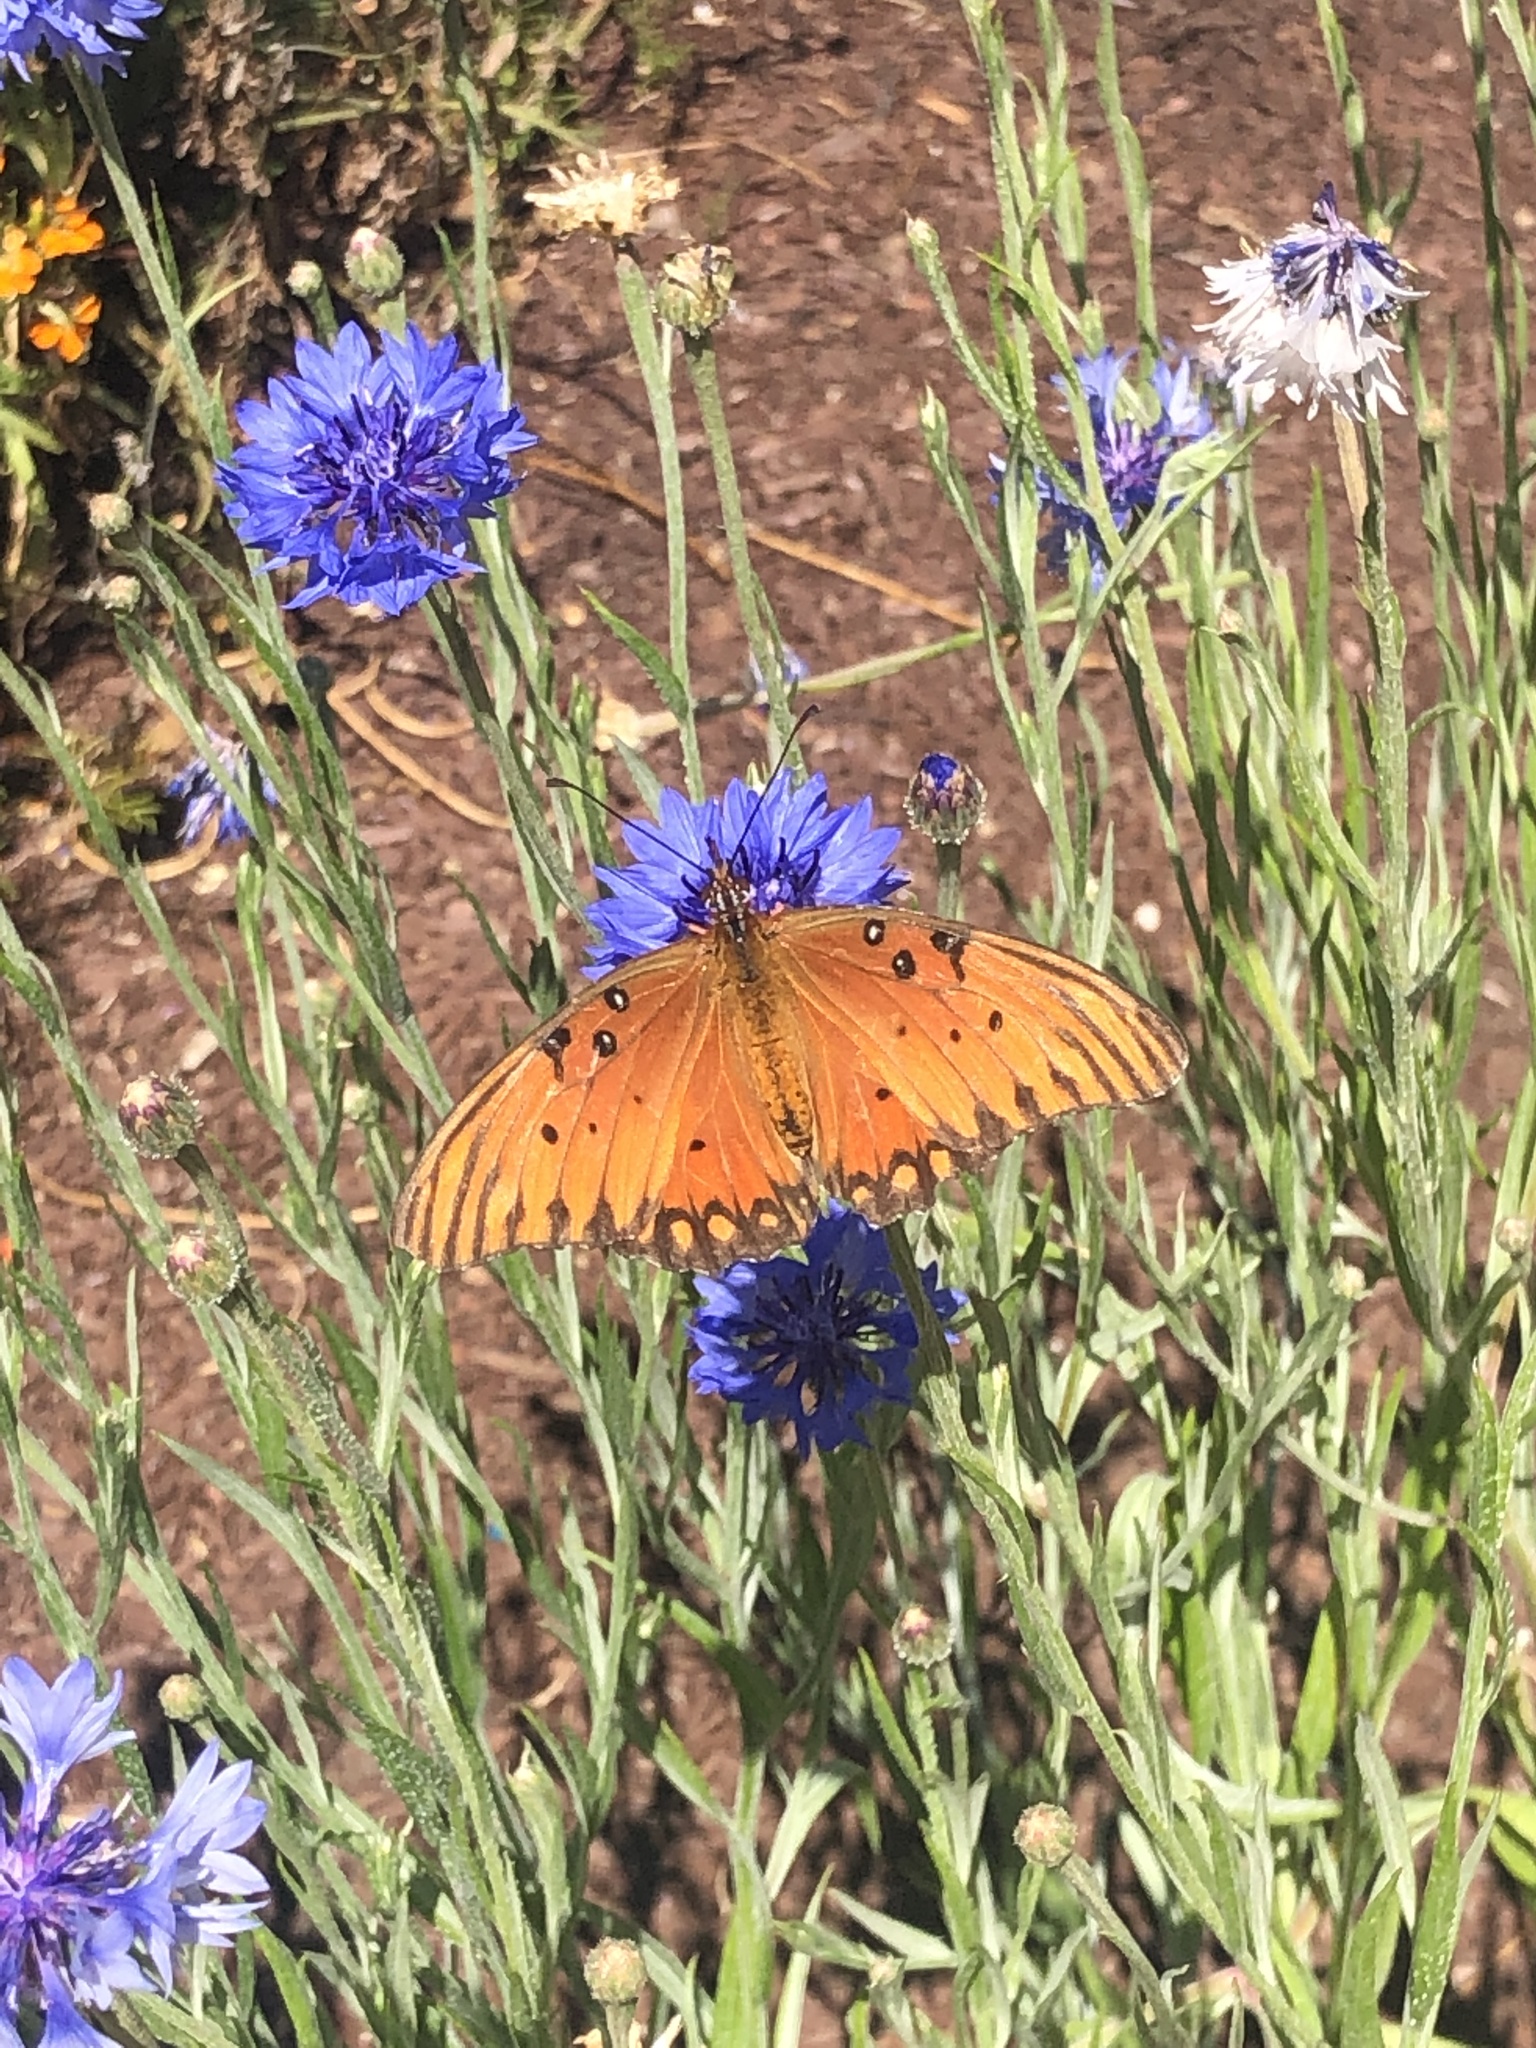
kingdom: Animalia
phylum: Arthropoda
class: Insecta
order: Lepidoptera
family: Nymphalidae
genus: Dione
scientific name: Dione vanillae
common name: Gulf fritillary
